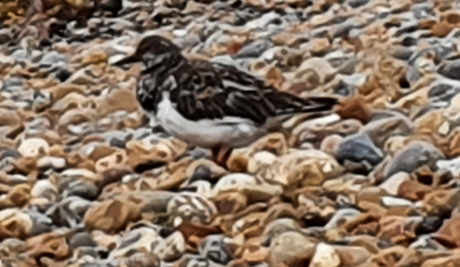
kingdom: Animalia
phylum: Chordata
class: Aves
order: Charadriiformes
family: Scolopacidae
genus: Arenaria
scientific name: Arenaria interpres
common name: Ruddy turnstone
